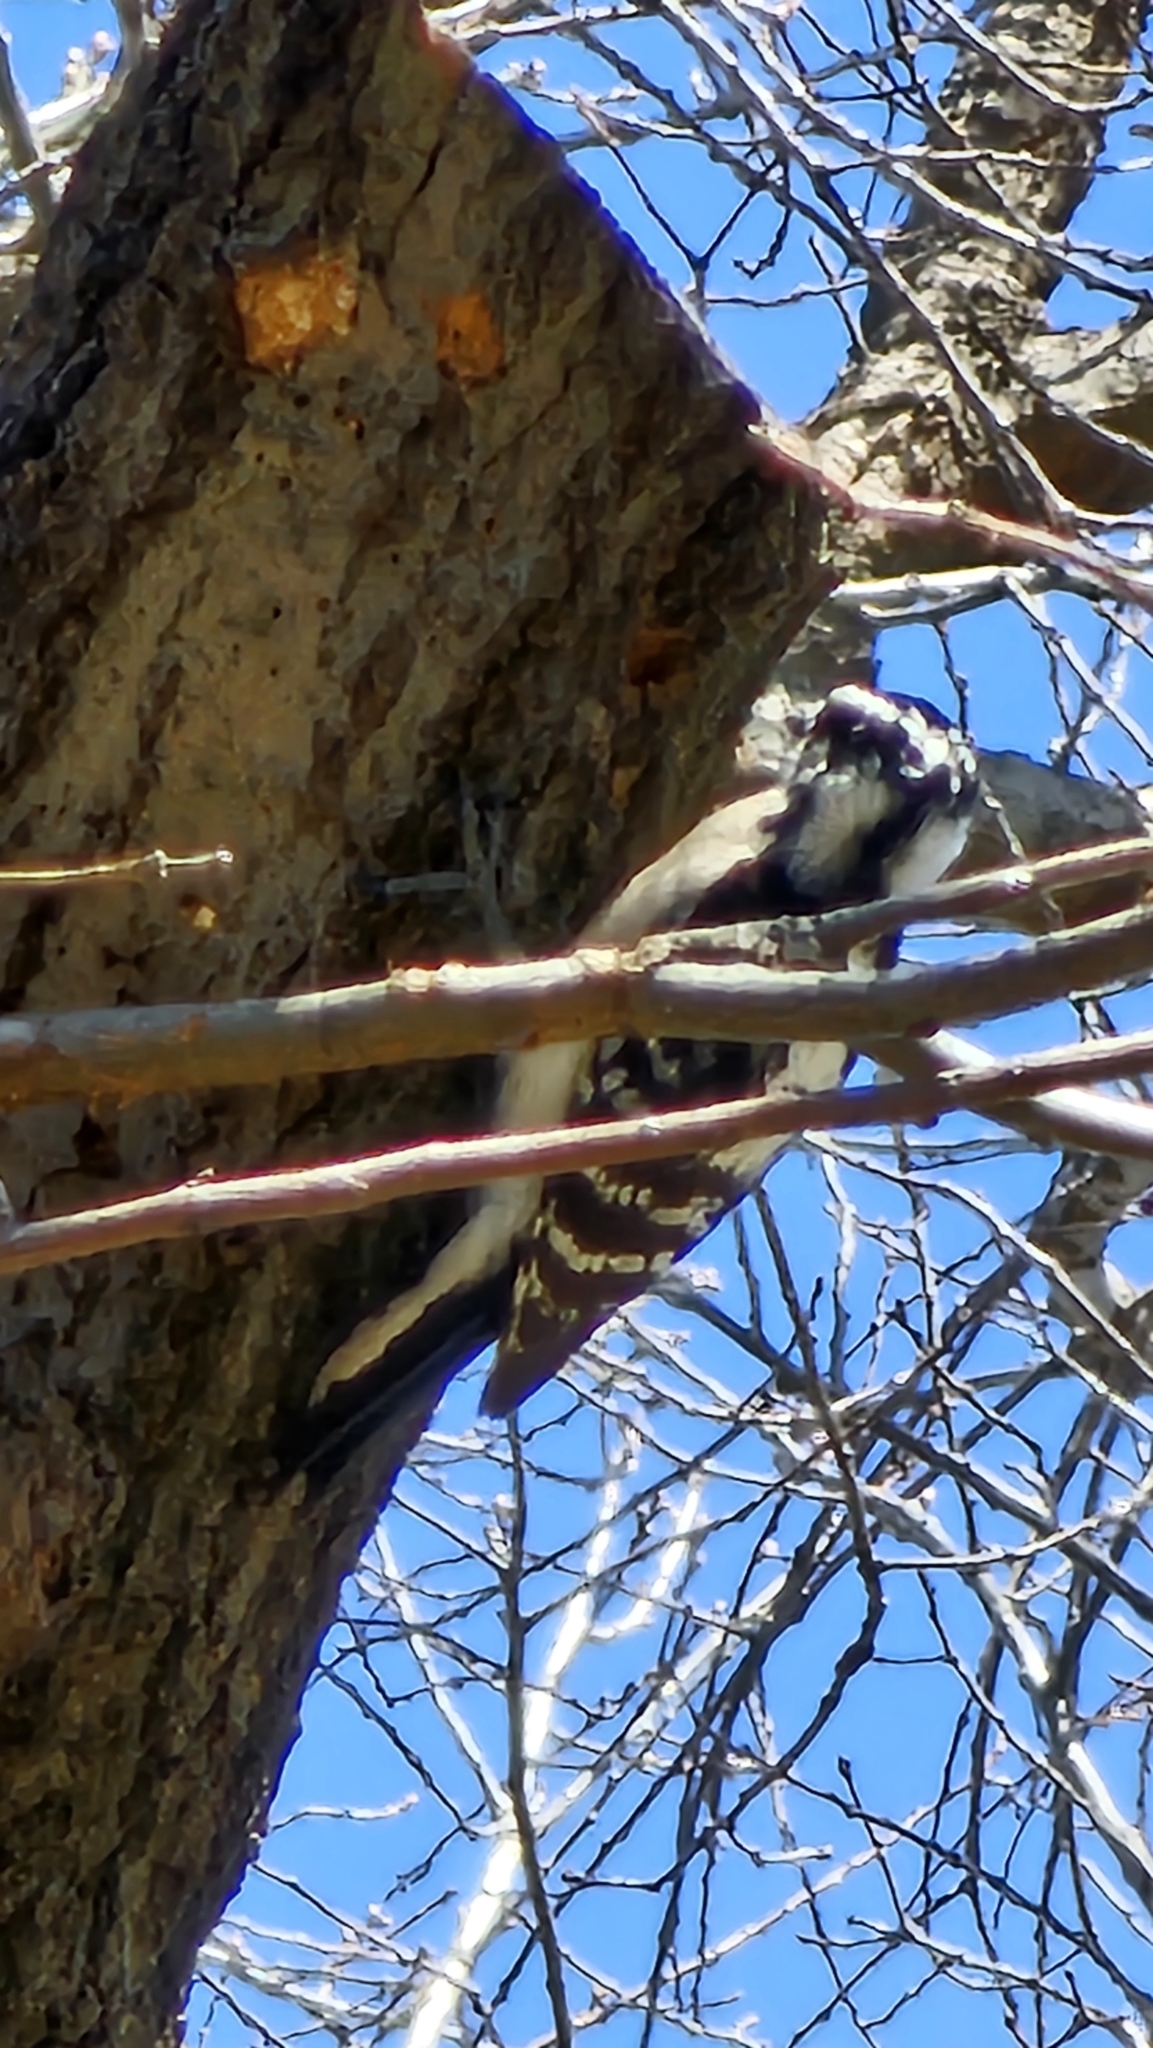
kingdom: Animalia
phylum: Chordata
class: Aves
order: Piciformes
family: Picidae
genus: Dryobates
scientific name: Dryobates pubescens
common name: Downy woodpecker
